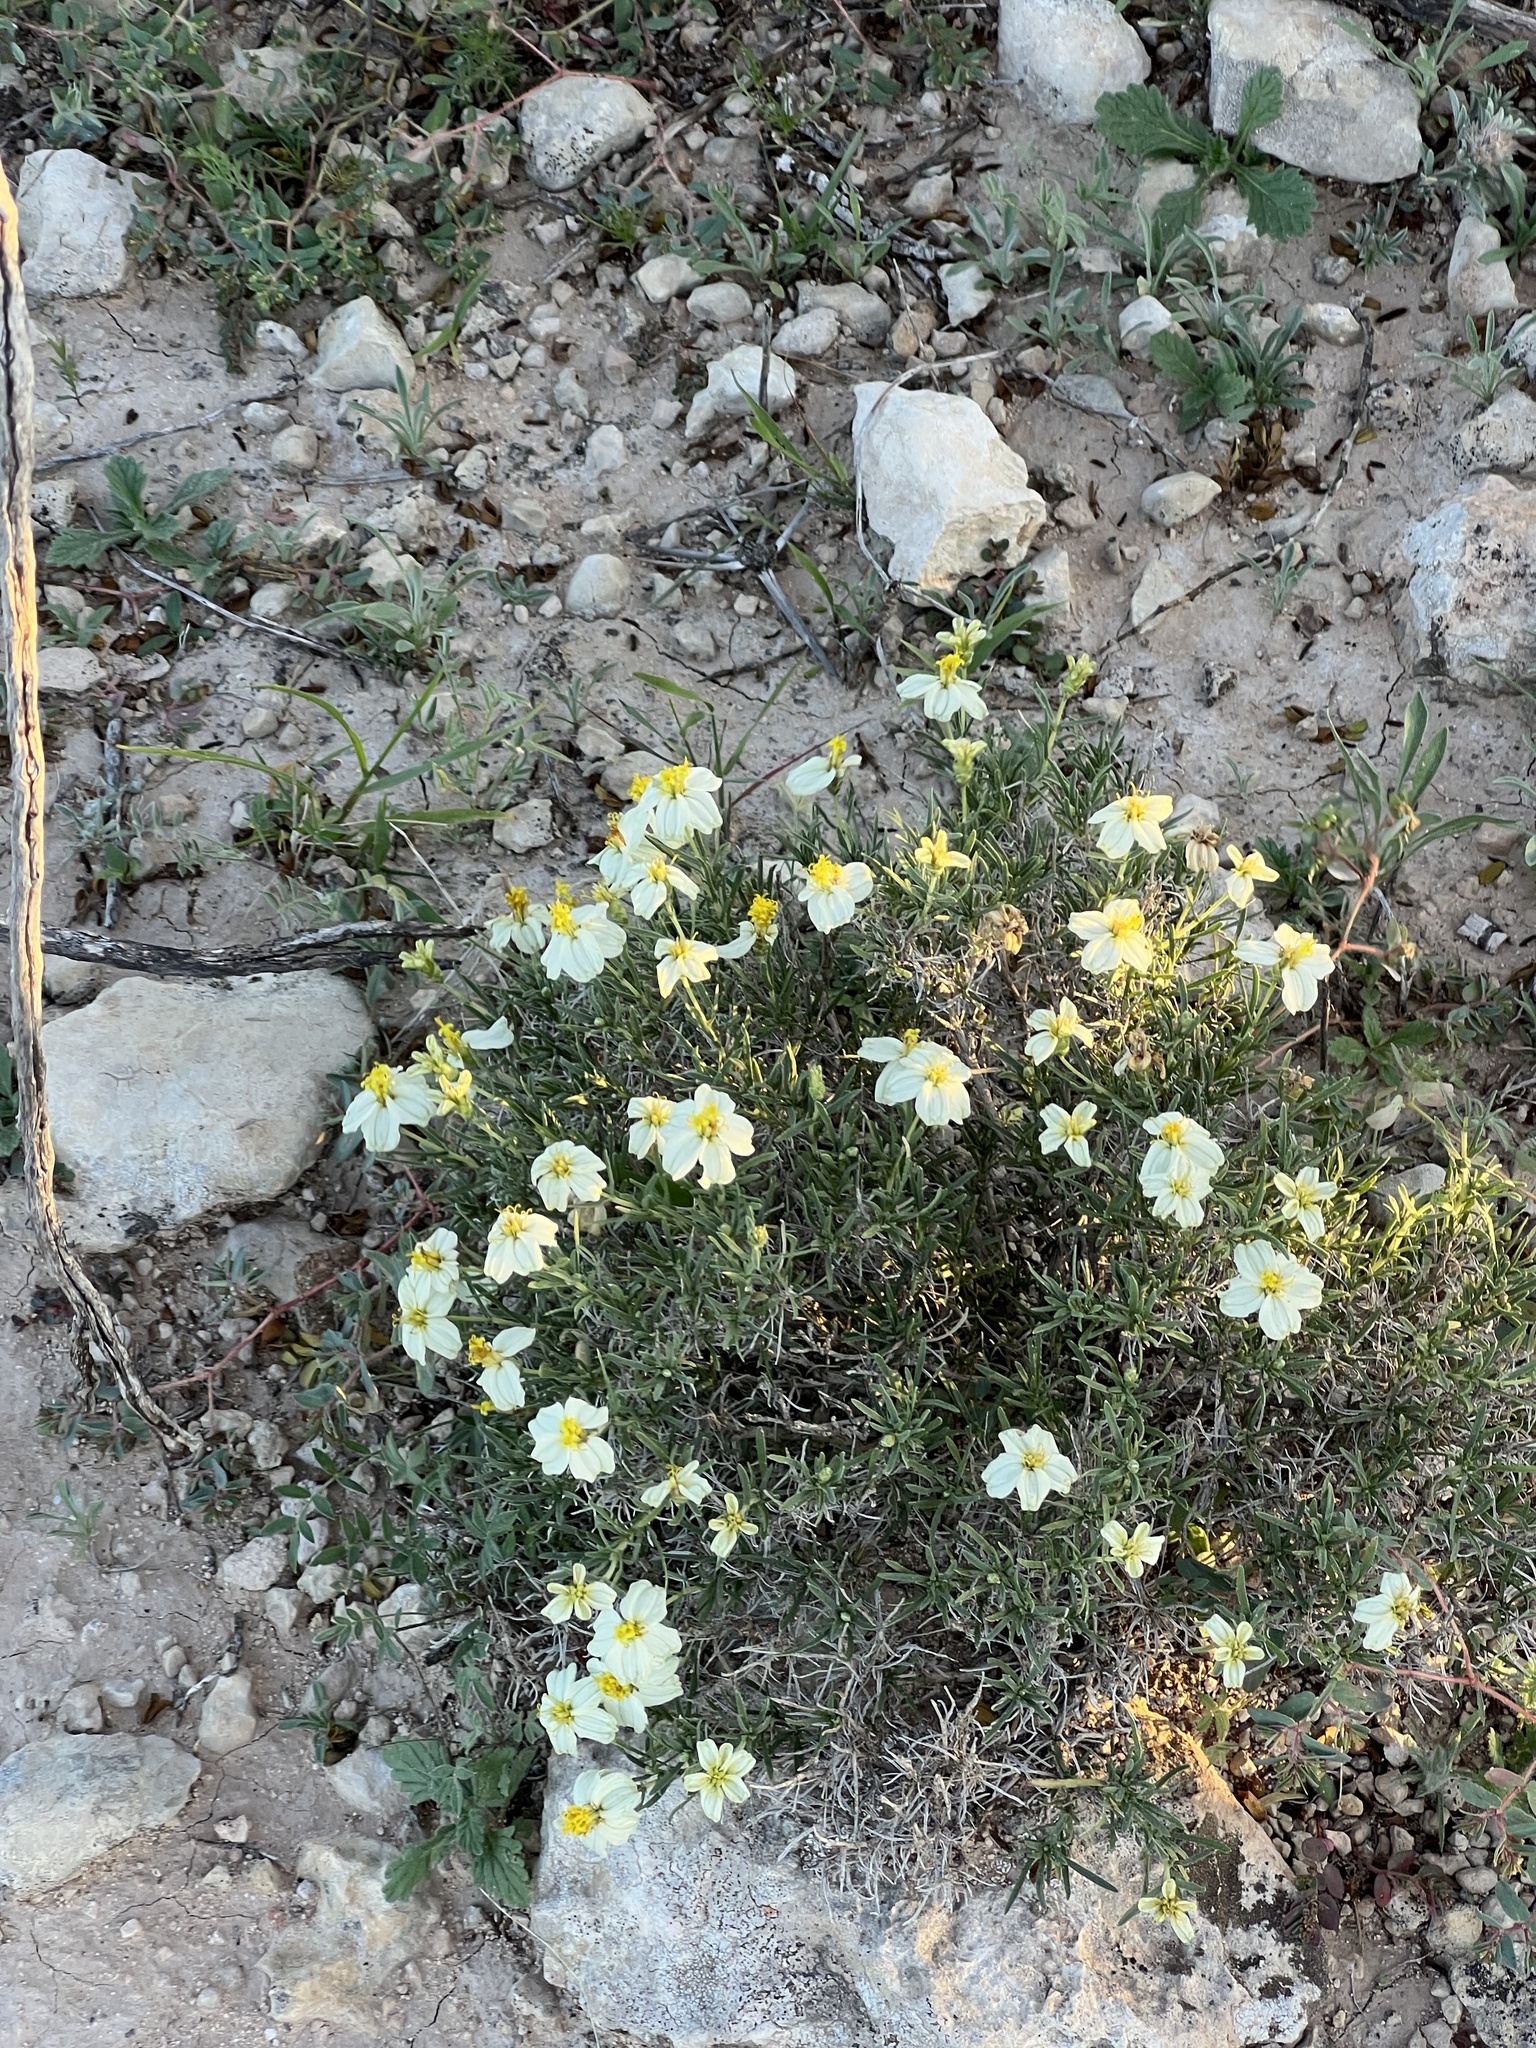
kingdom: Plantae
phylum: Tracheophyta
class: Magnoliopsida
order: Asterales
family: Asteraceae
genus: Zinnia
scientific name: Zinnia acerosa
